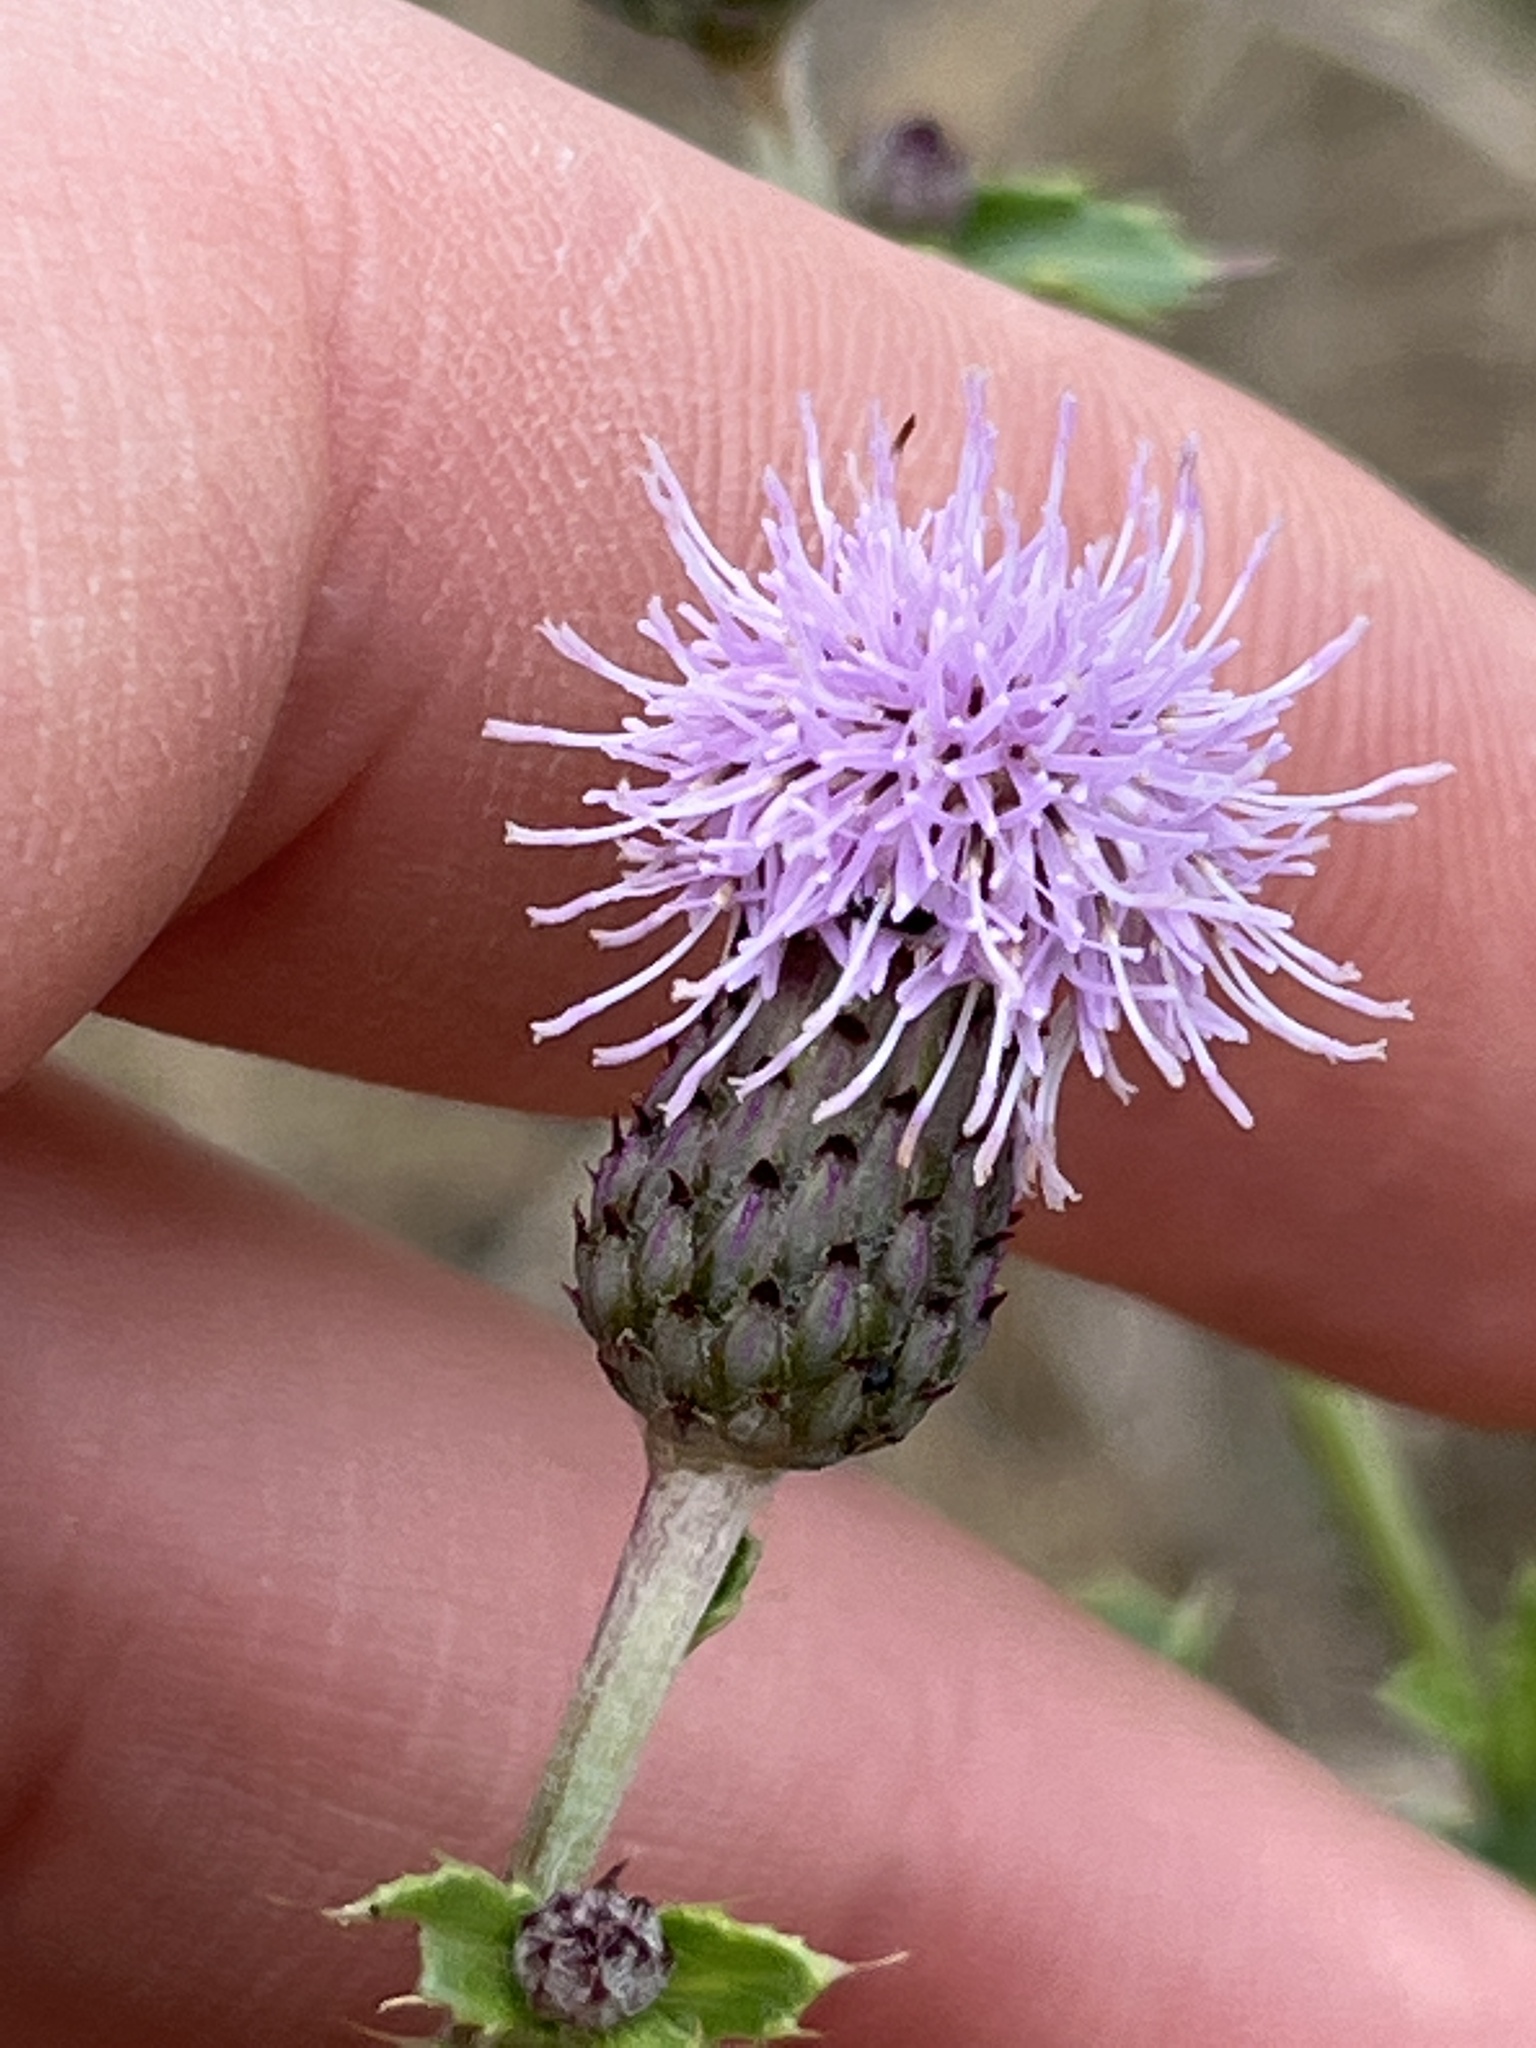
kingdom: Plantae
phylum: Tracheophyta
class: Magnoliopsida
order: Asterales
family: Asteraceae
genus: Cirsium
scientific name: Cirsium arvense
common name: Creeping thistle
